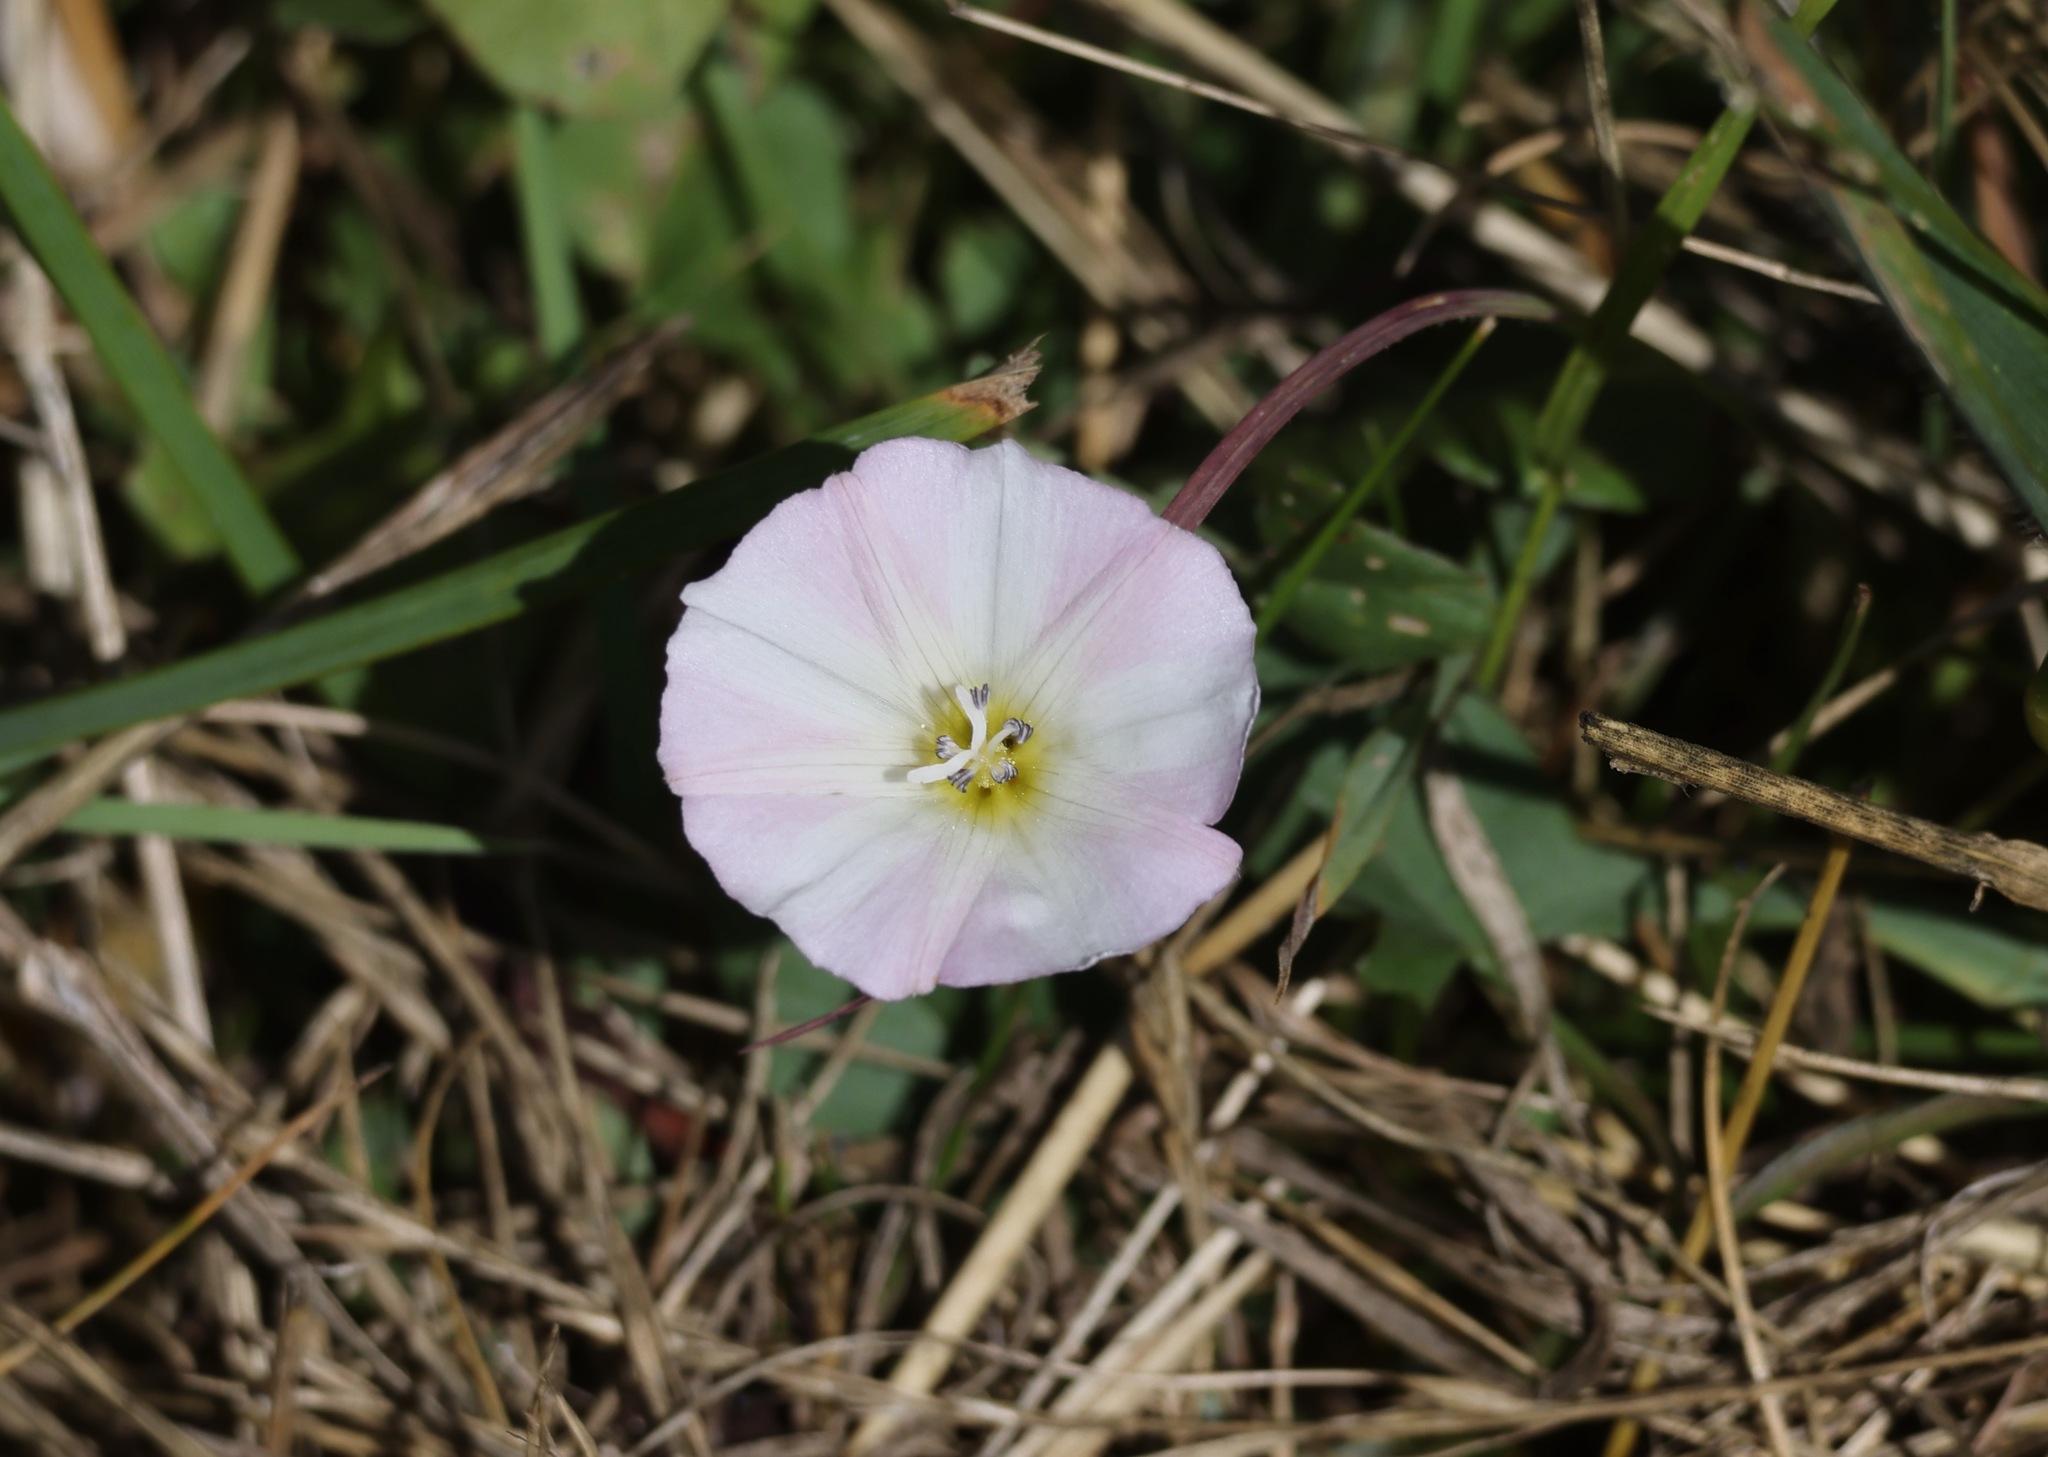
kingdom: Plantae
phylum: Tracheophyta
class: Magnoliopsida
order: Solanales
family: Convolvulaceae
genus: Convolvulus
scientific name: Convolvulus arvensis
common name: Field bindweed
